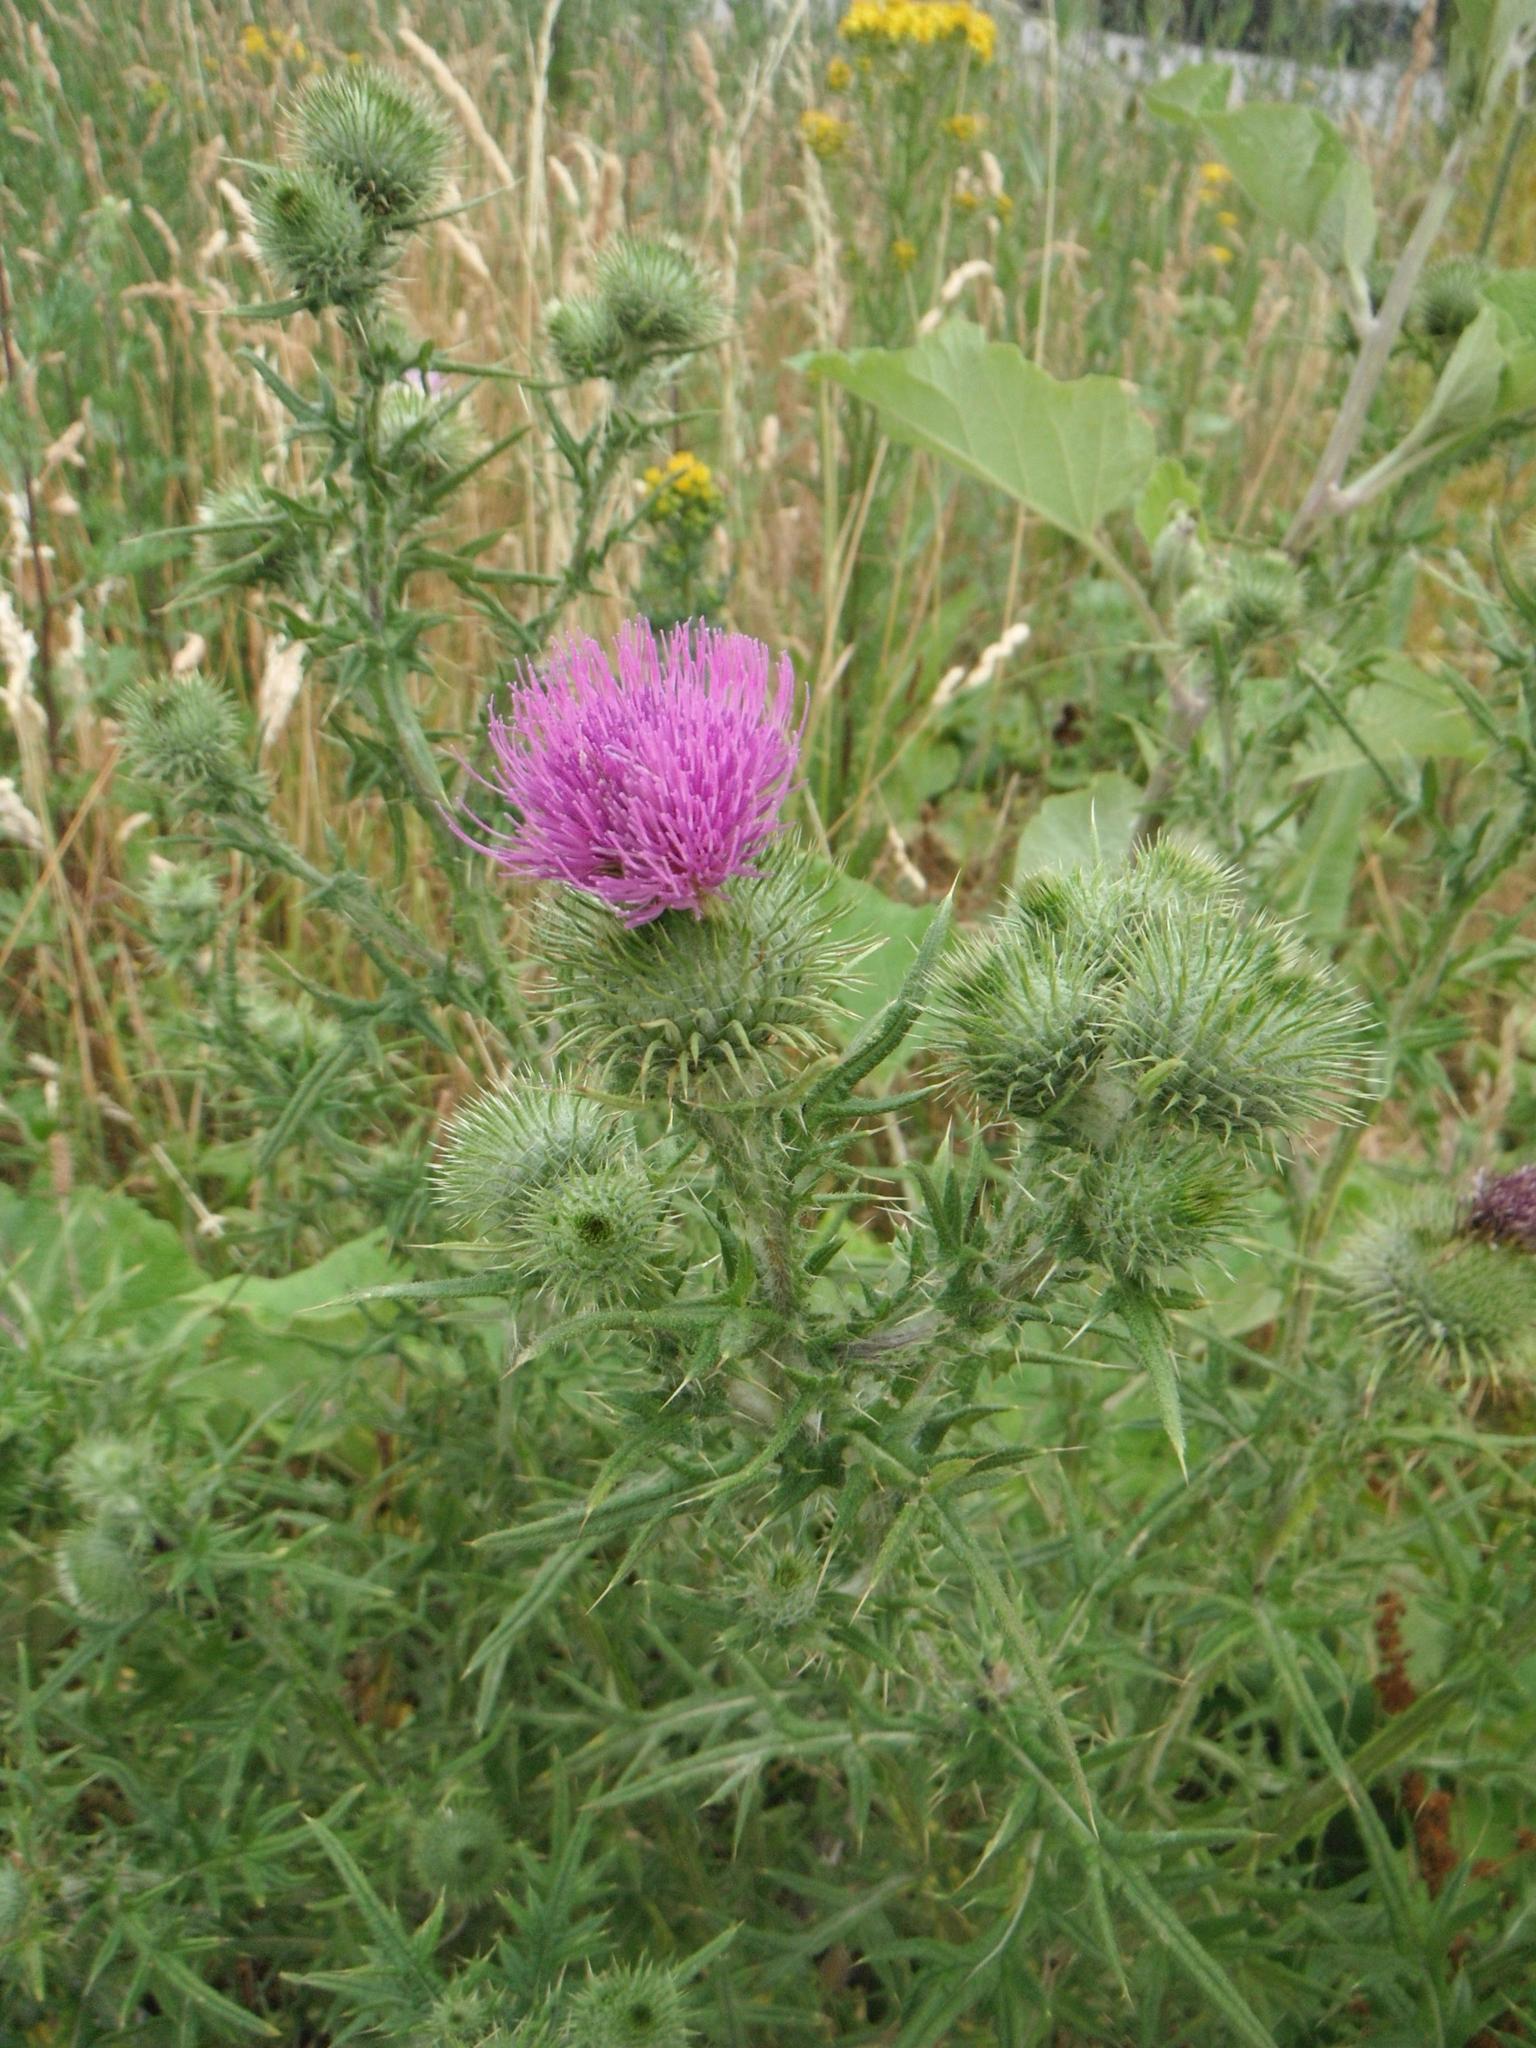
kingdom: Plantae
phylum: Tracheophyta
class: Magnoliopsida
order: Asterales
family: Asteraceae
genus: Cirsium
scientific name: Cirsium vulgare
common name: Bull thistle
